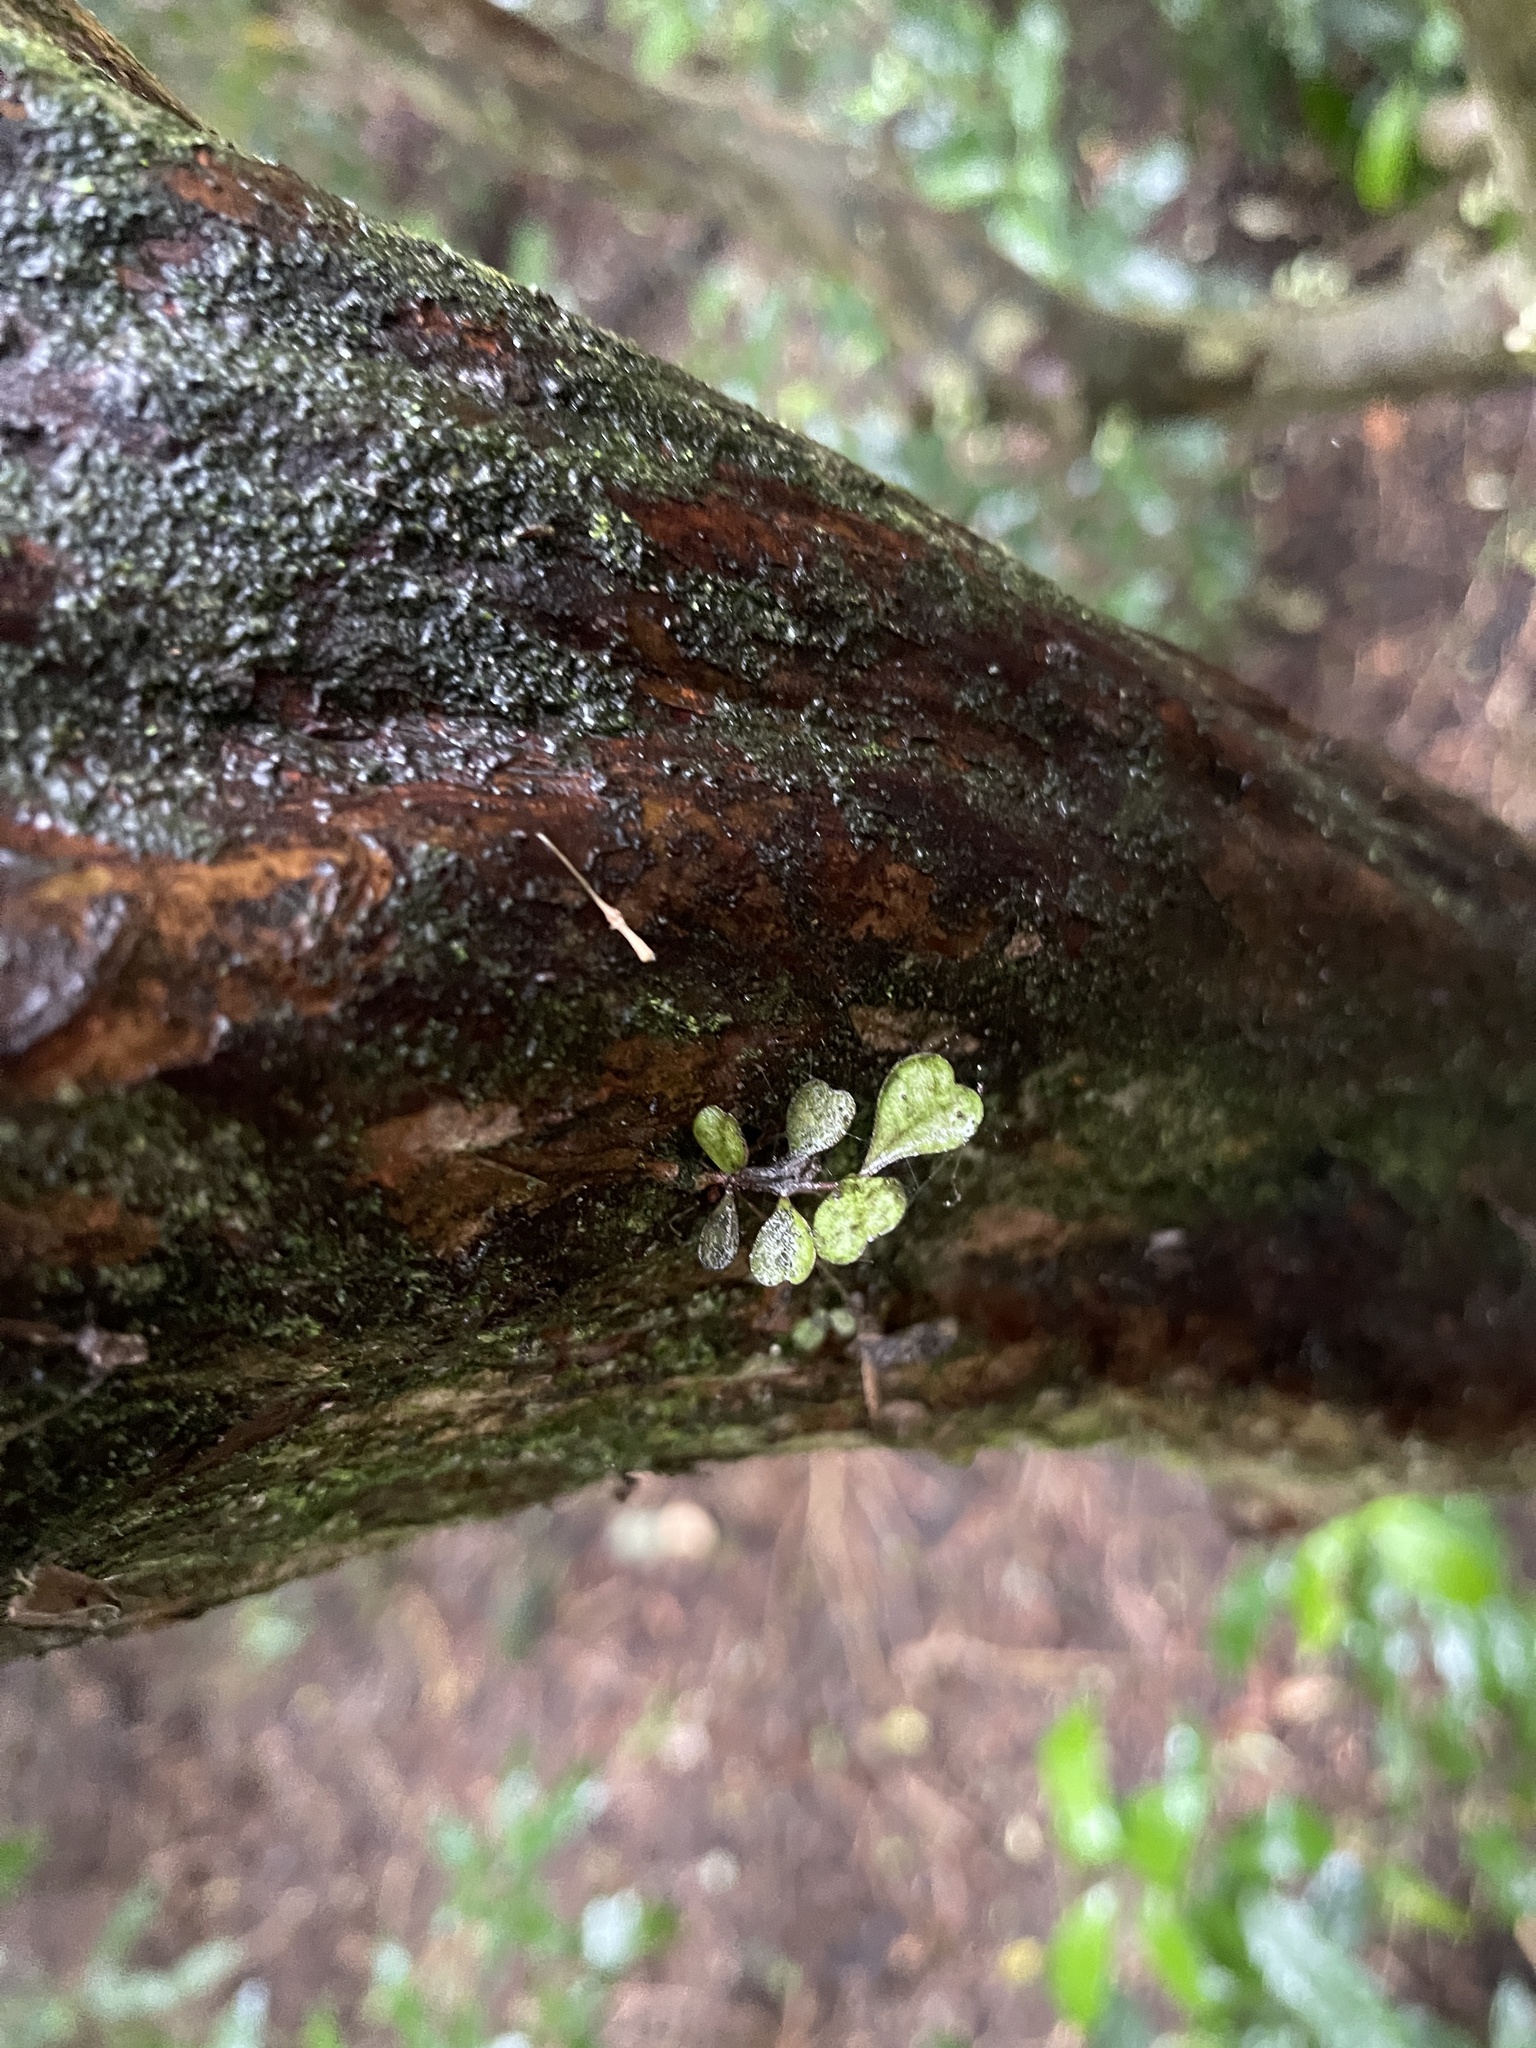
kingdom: Plantae
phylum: Tracheophyta
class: Magnoliopsida
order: Myrtales
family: Myrtaceae
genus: Lophomyrtus
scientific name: Lophomyrtus obcordata
